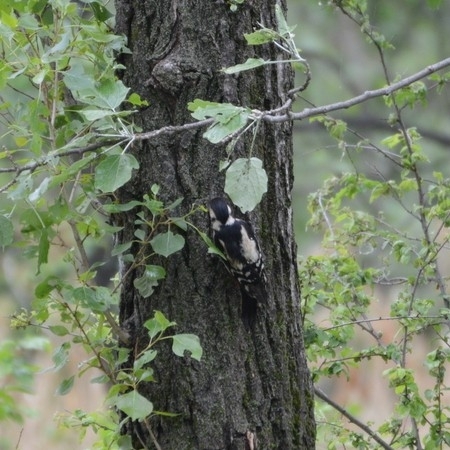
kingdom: Animalia
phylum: Chordata
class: Aves
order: Piciformes
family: Picidae
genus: Dendrocopos
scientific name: Dendrocopos major
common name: Great spotted woodpecker
